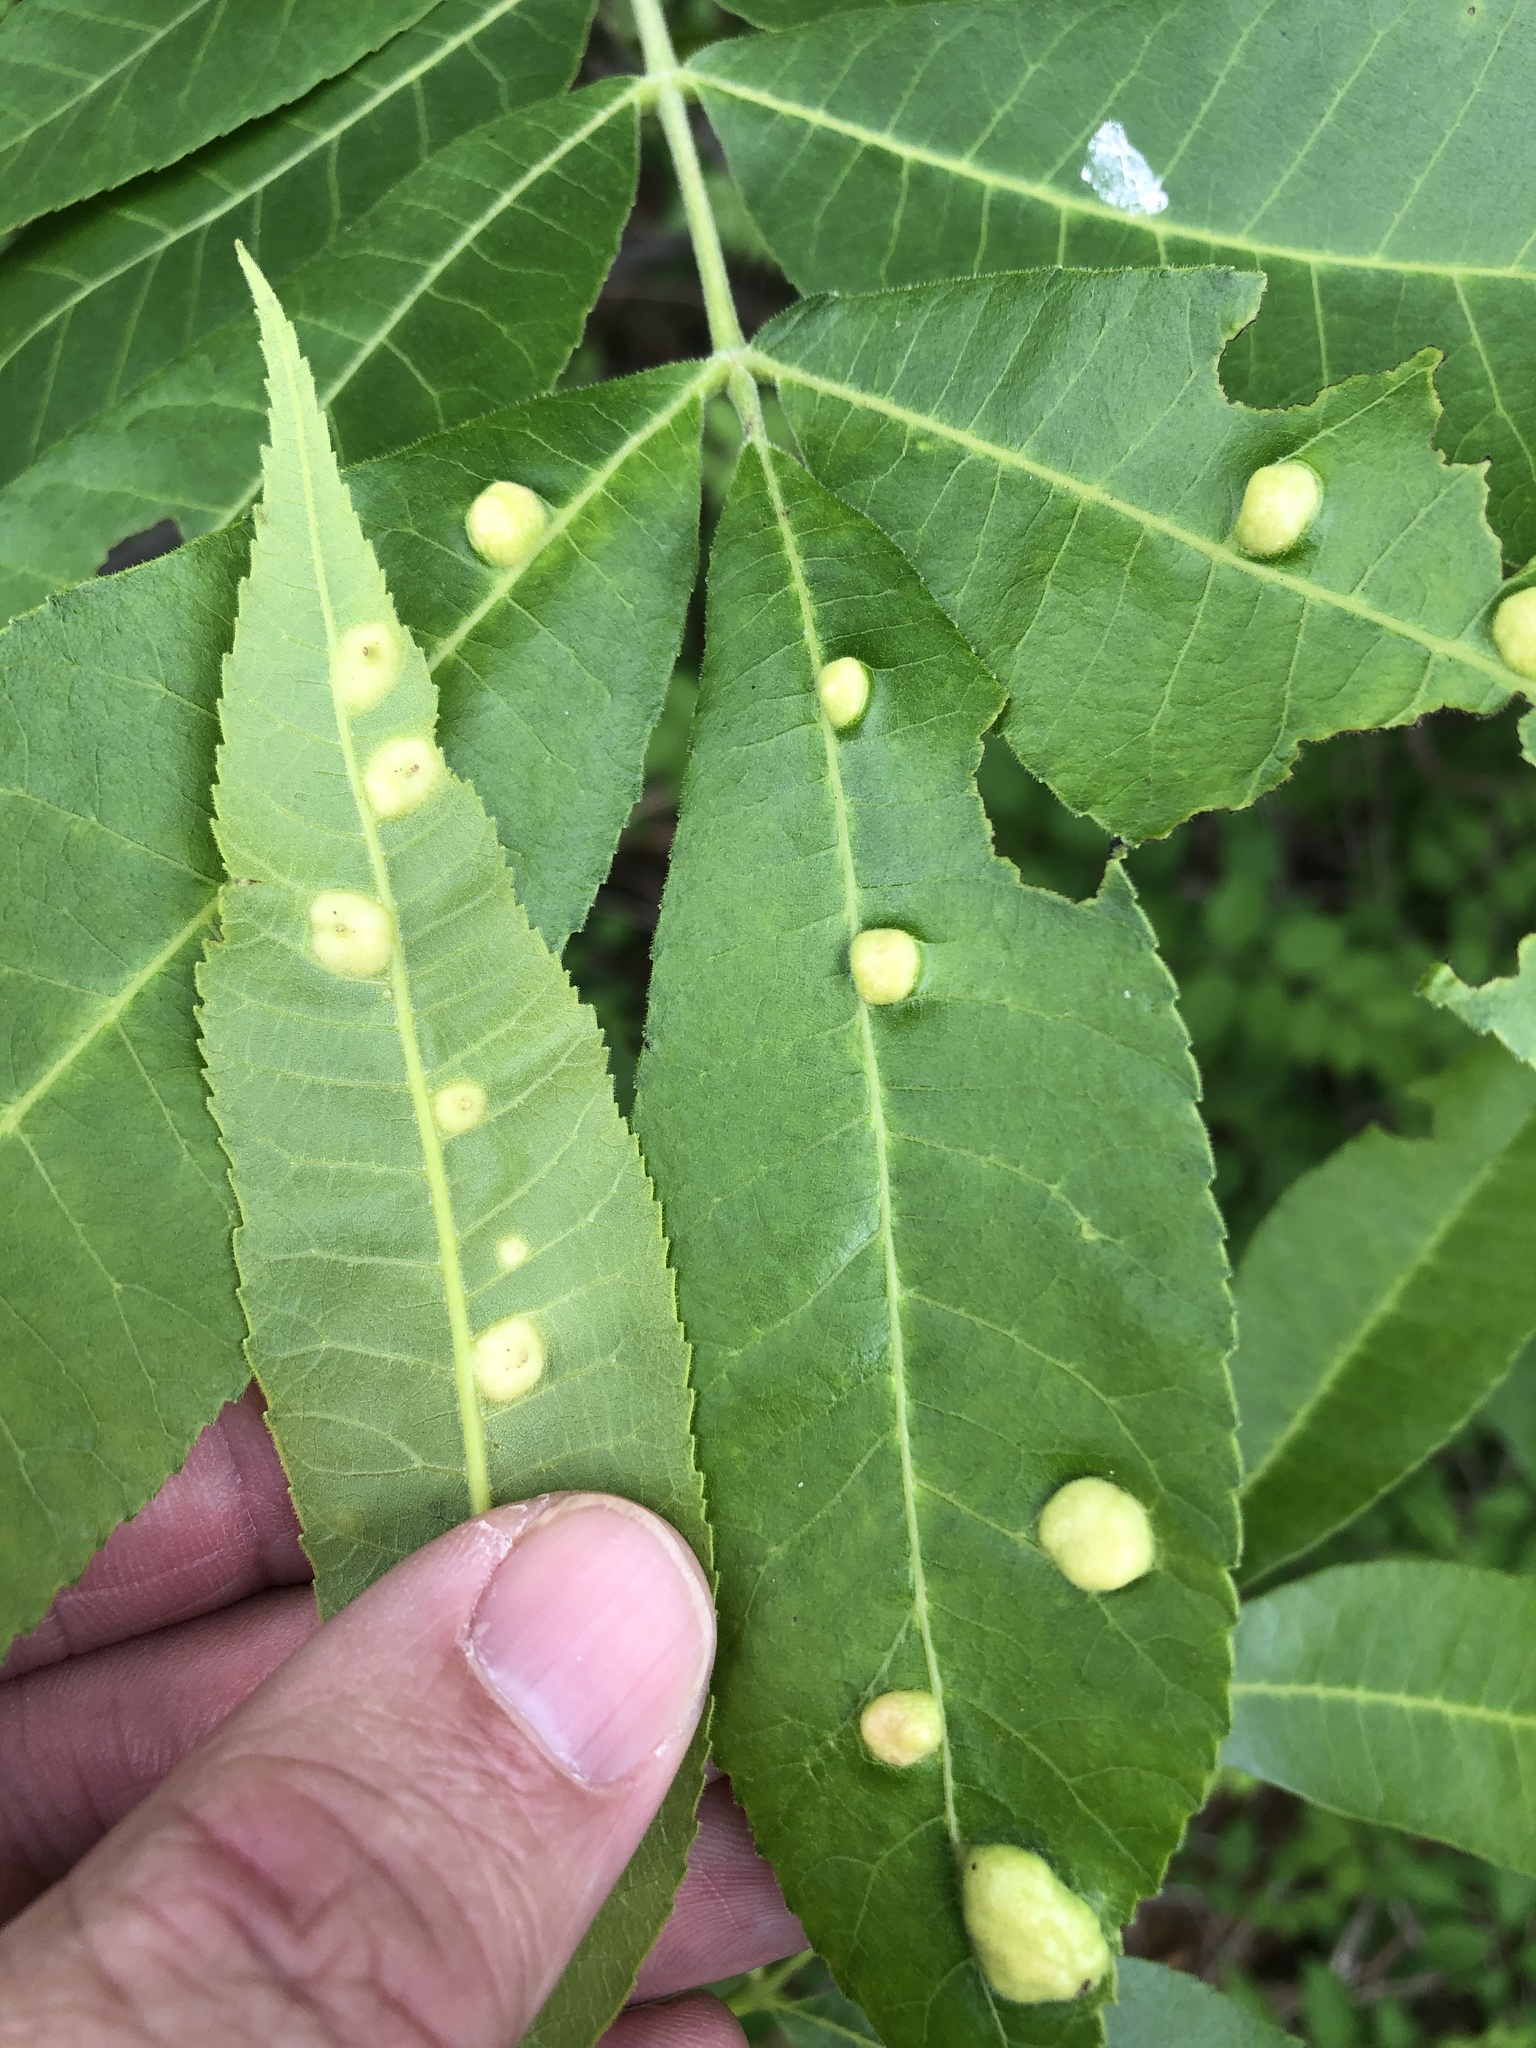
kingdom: Animalia
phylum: Arthropoda
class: Insecta
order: Hemiptera
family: Phylloxeridae
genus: Daktulosphaira
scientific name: Daktulosphaira notabilis
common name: Pecan leaf phylloxera
